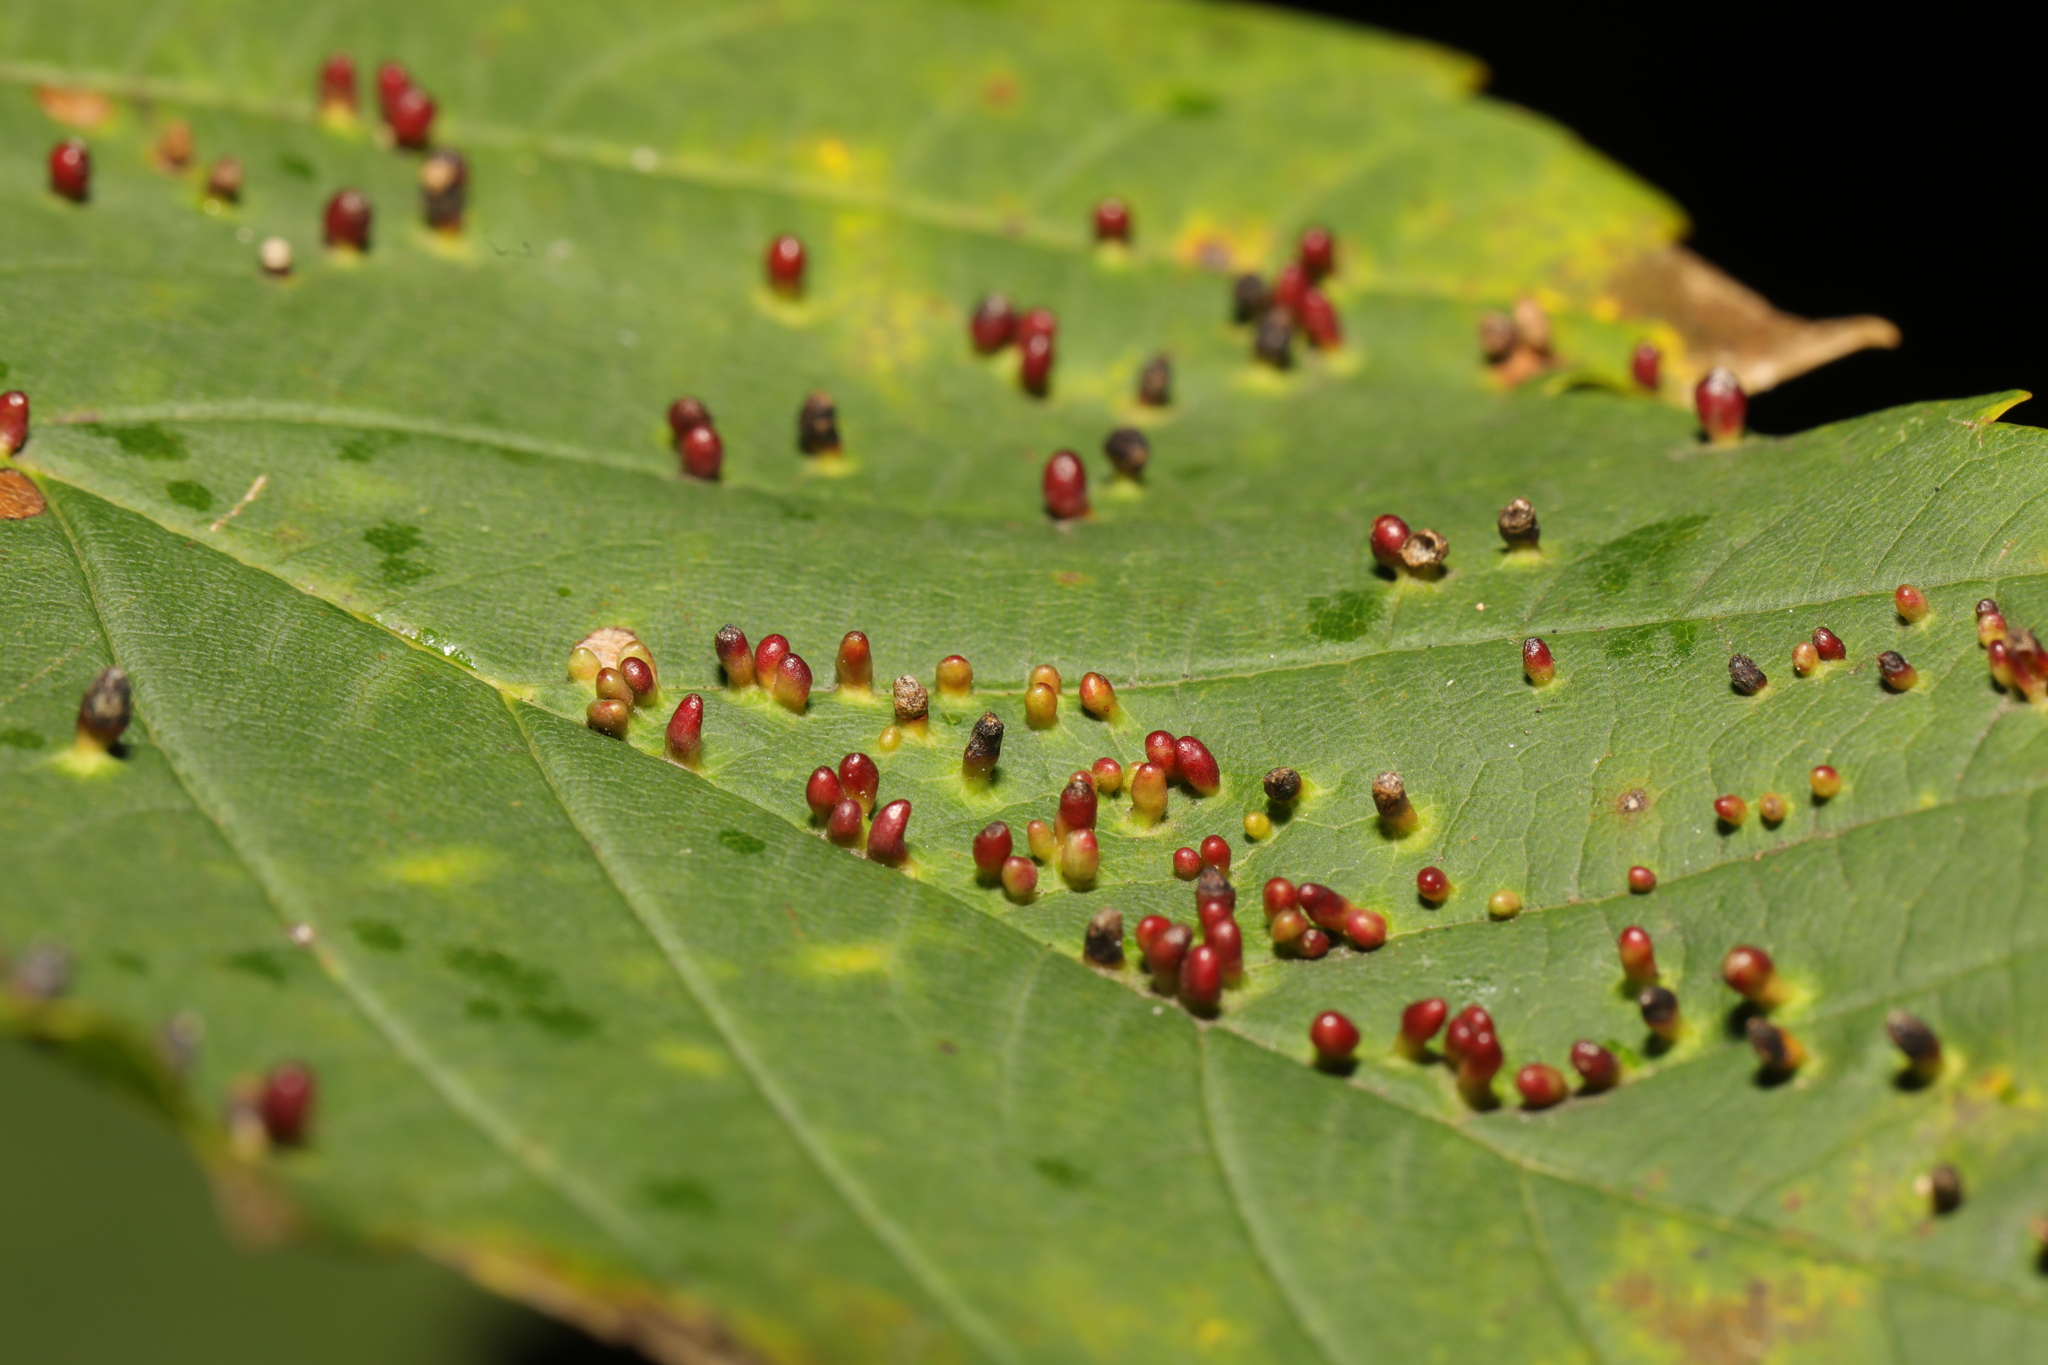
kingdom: Animalia
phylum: Arthropoda
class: Arachnida
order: Trombidiformes
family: Eriophyidae
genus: Aceria
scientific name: Aceria cephaloneus
